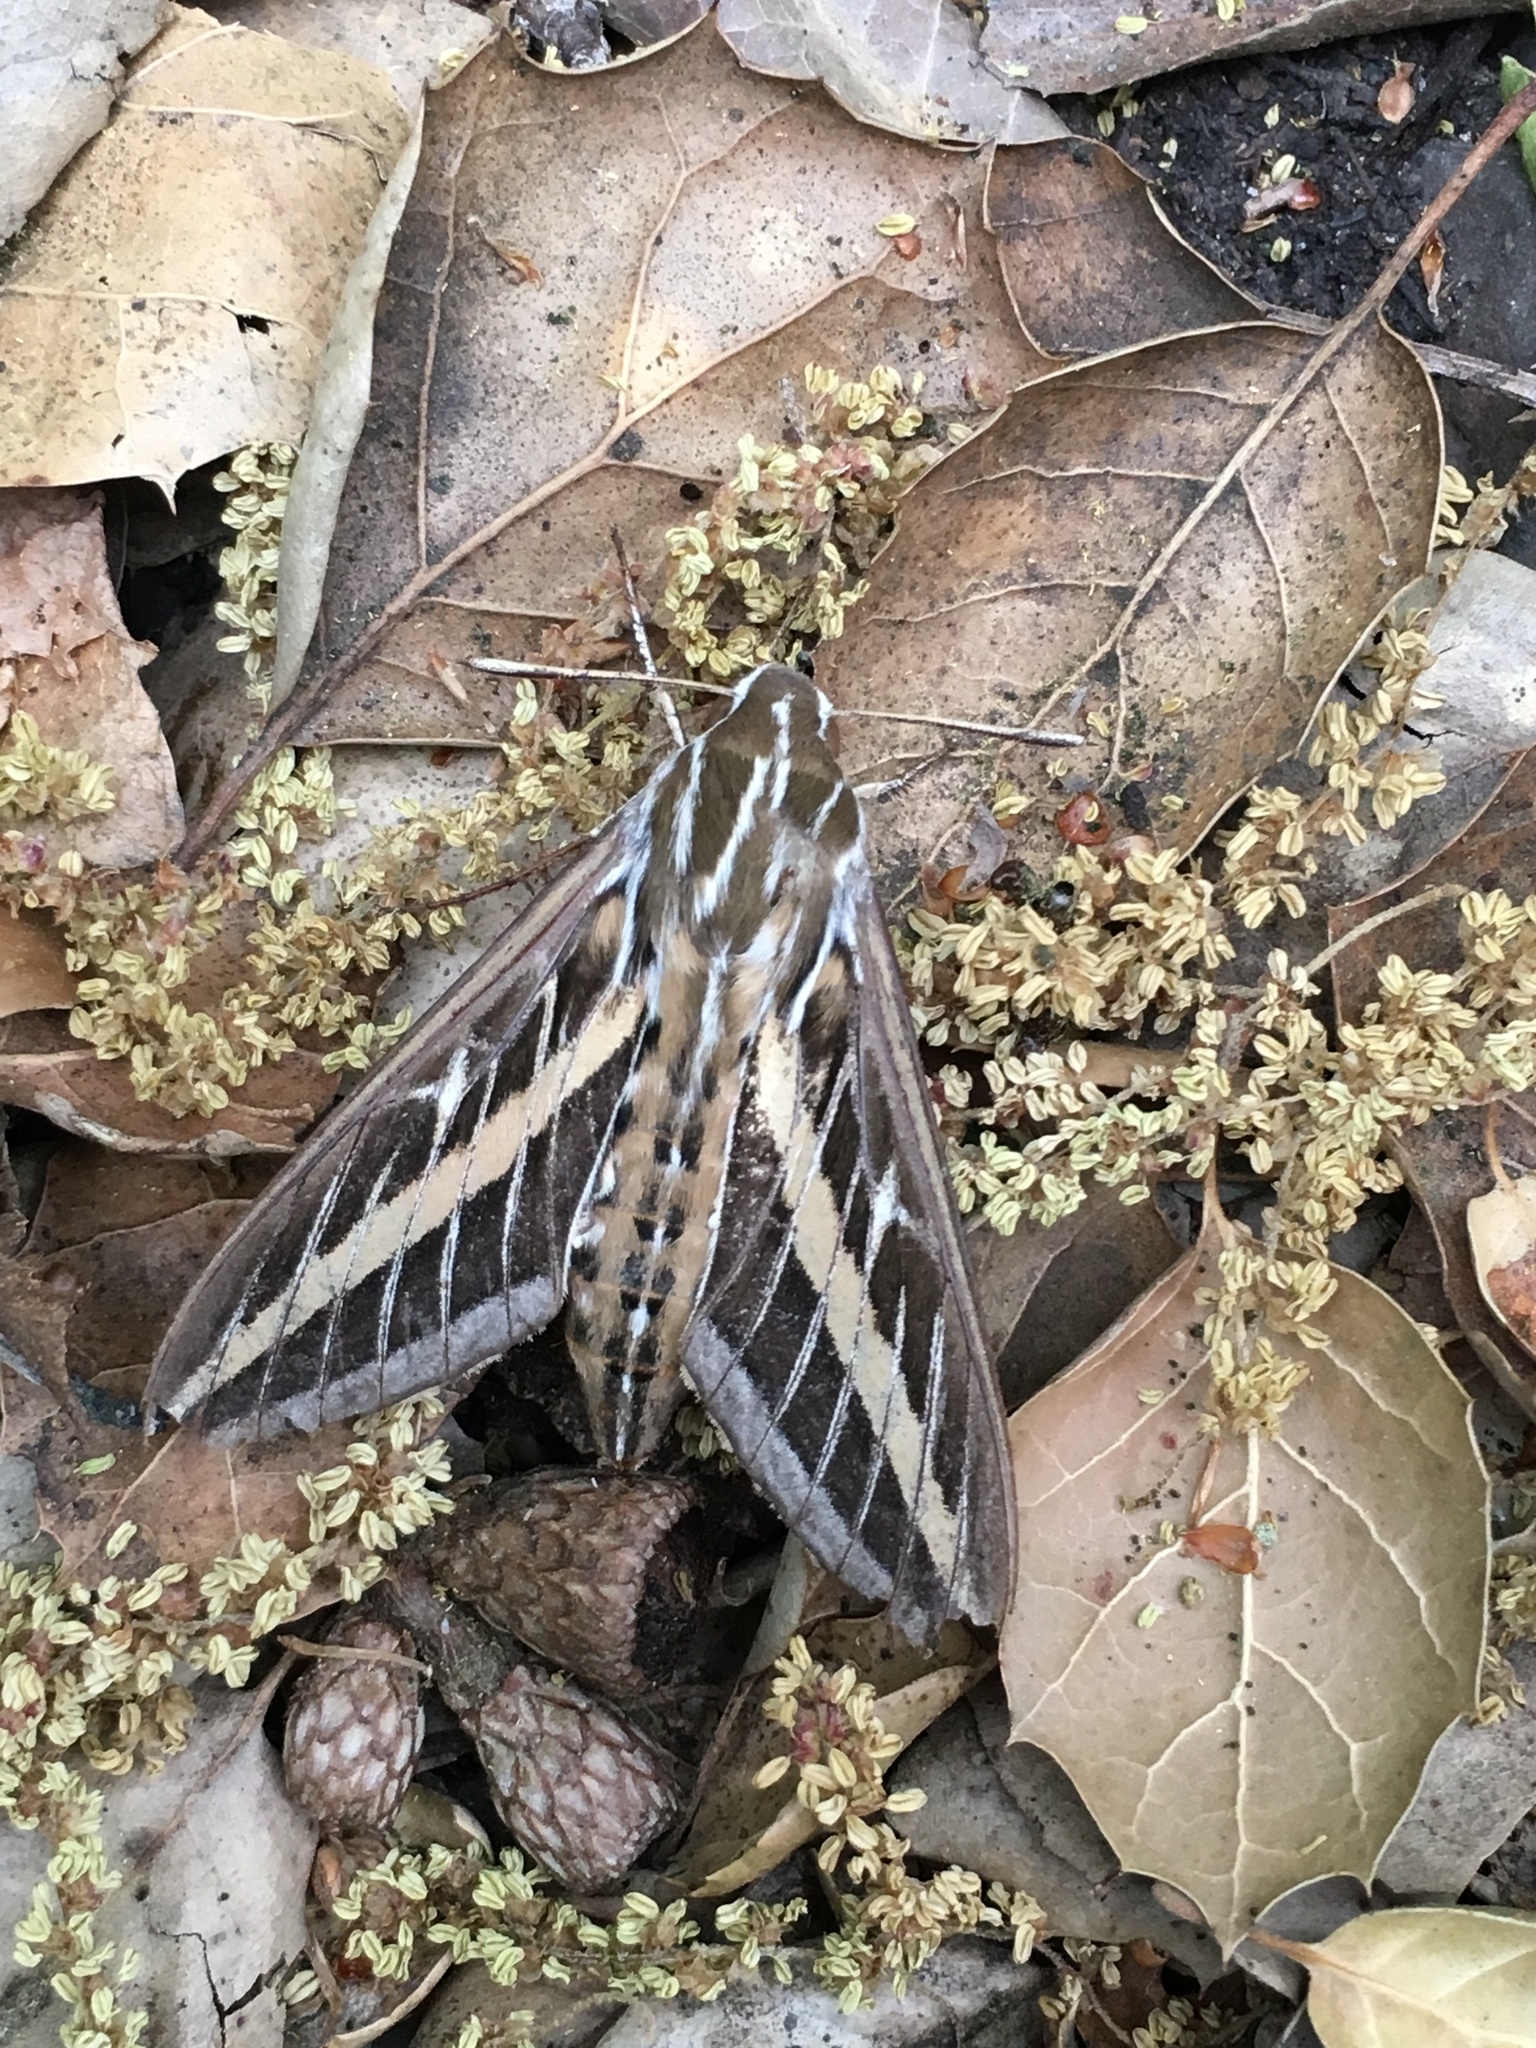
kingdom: Animalia
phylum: Arthropoda
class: Insecta
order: Lepidoptera
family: Sphingidae
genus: Hyles
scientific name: Hyles lineata
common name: White-lined sphinx
